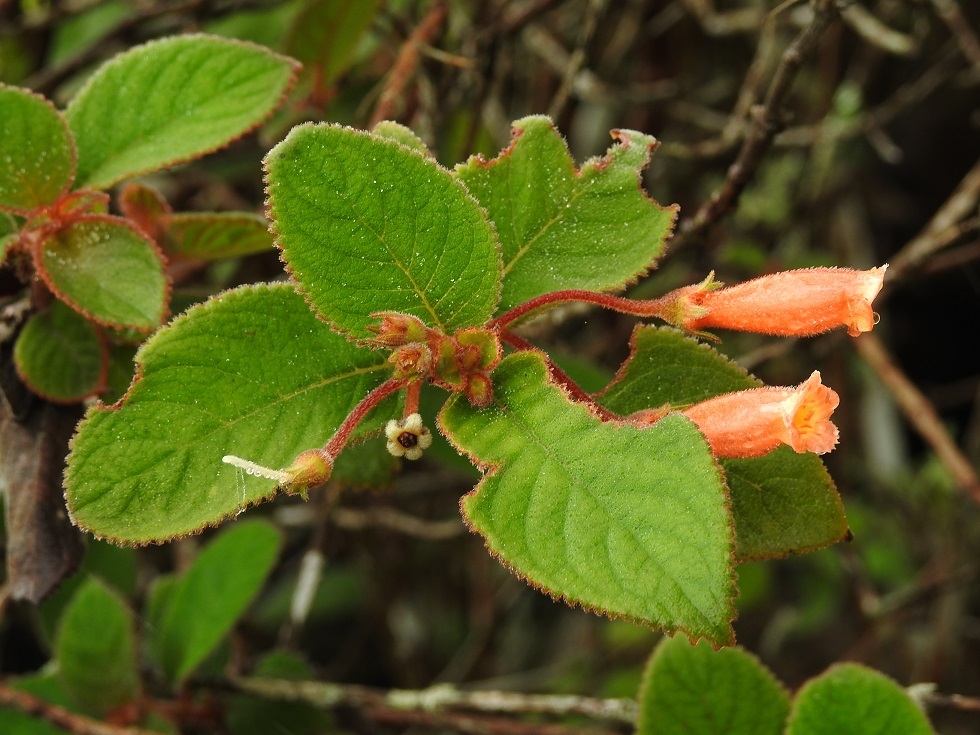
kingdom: Plantae
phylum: Tracheophyta
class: Magnoliopsida
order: Lamiales
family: Gesneriaceae
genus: Moussonia
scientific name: Moussonia elegans
